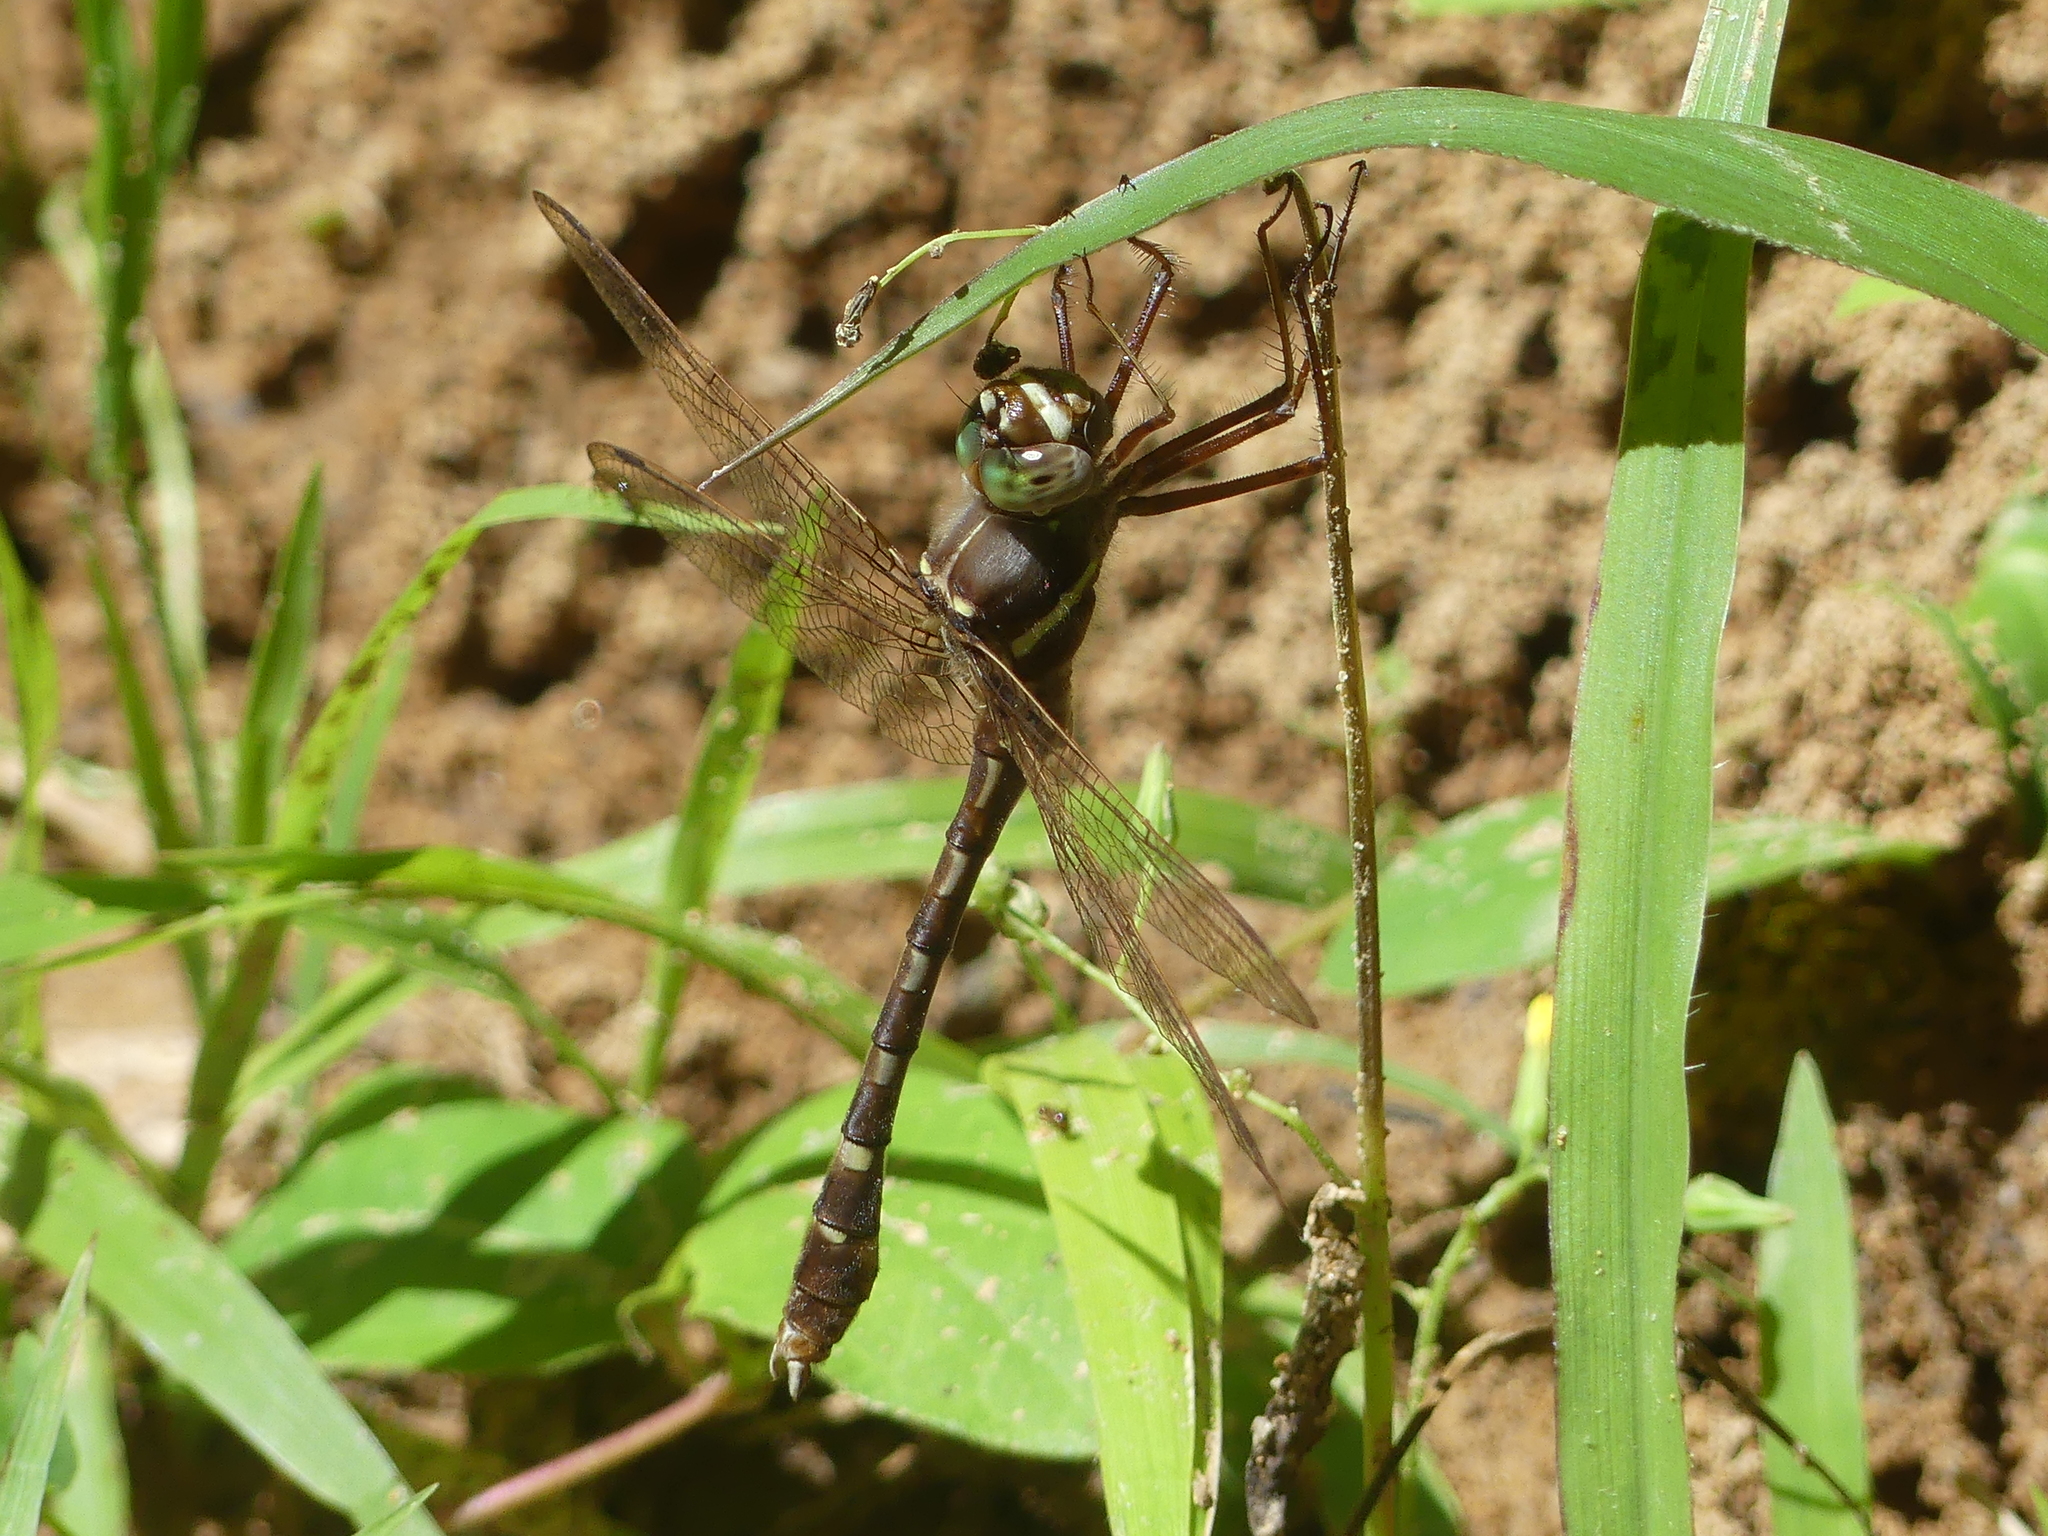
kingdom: Animalia
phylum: Arthropoda
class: Insecta
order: Odonata
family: Macromiidae
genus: Didymops
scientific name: Didymops transversa
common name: Stream cruiser
